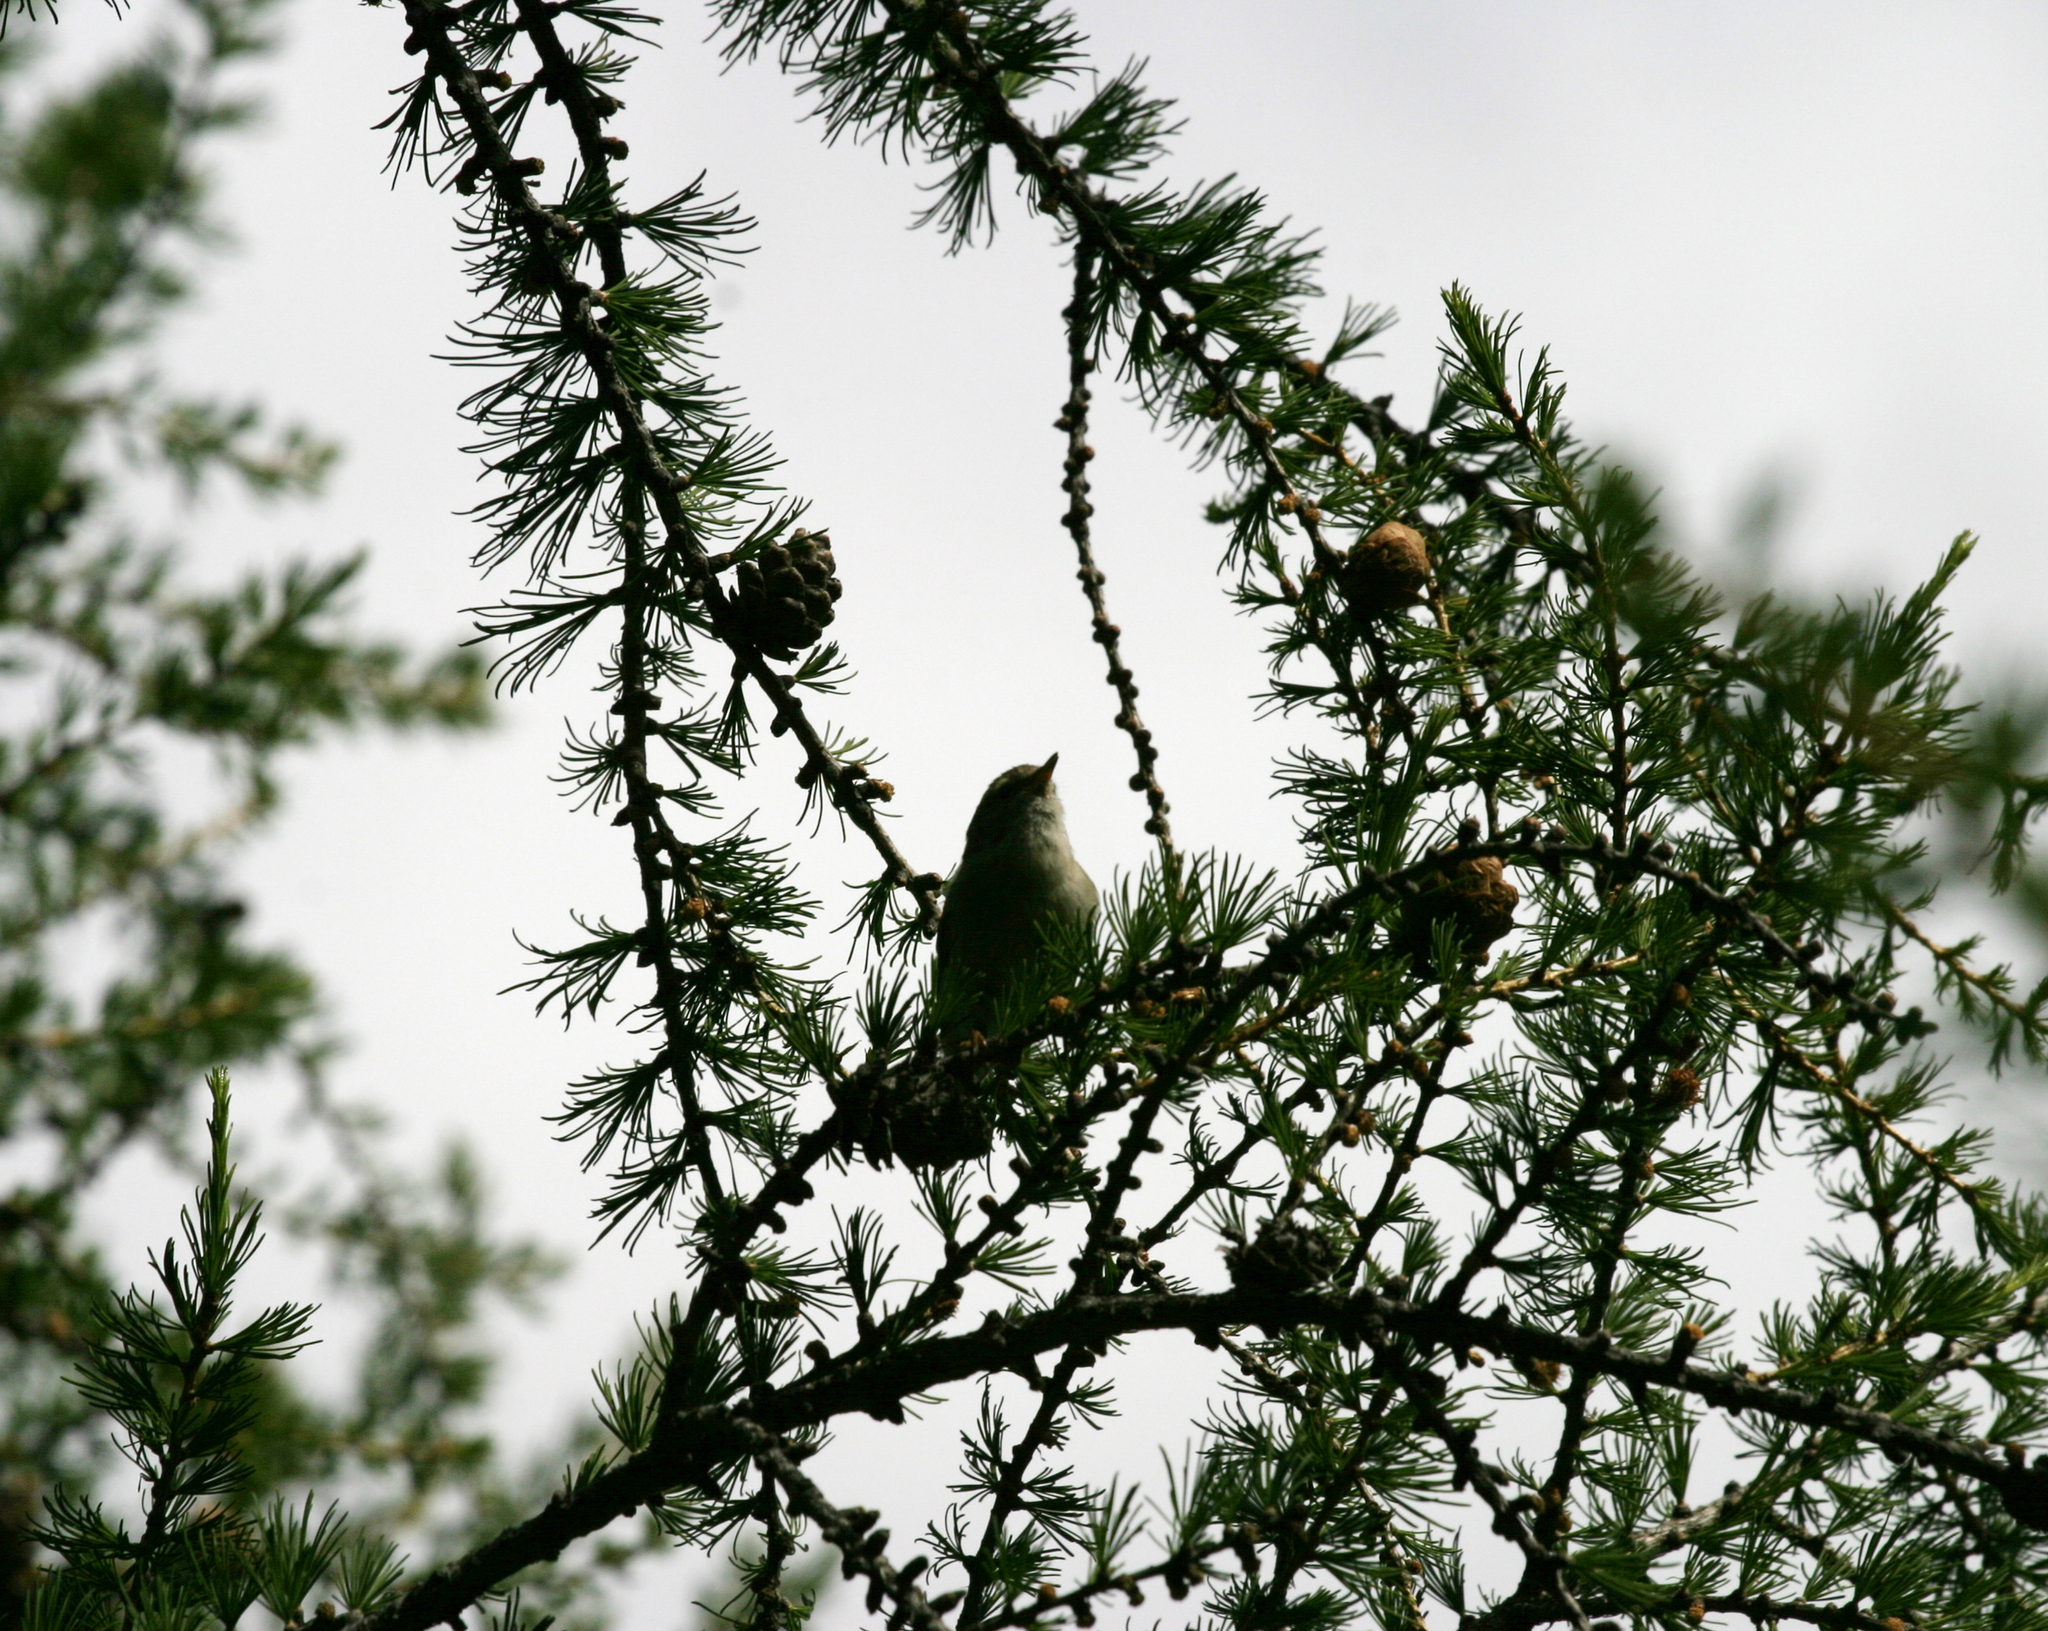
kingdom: Plantae
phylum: Tracheophyta
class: Pinopsida
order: Pinales
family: Pinaceae
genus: Larix
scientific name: Larix sibirica
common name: Siberian larch
